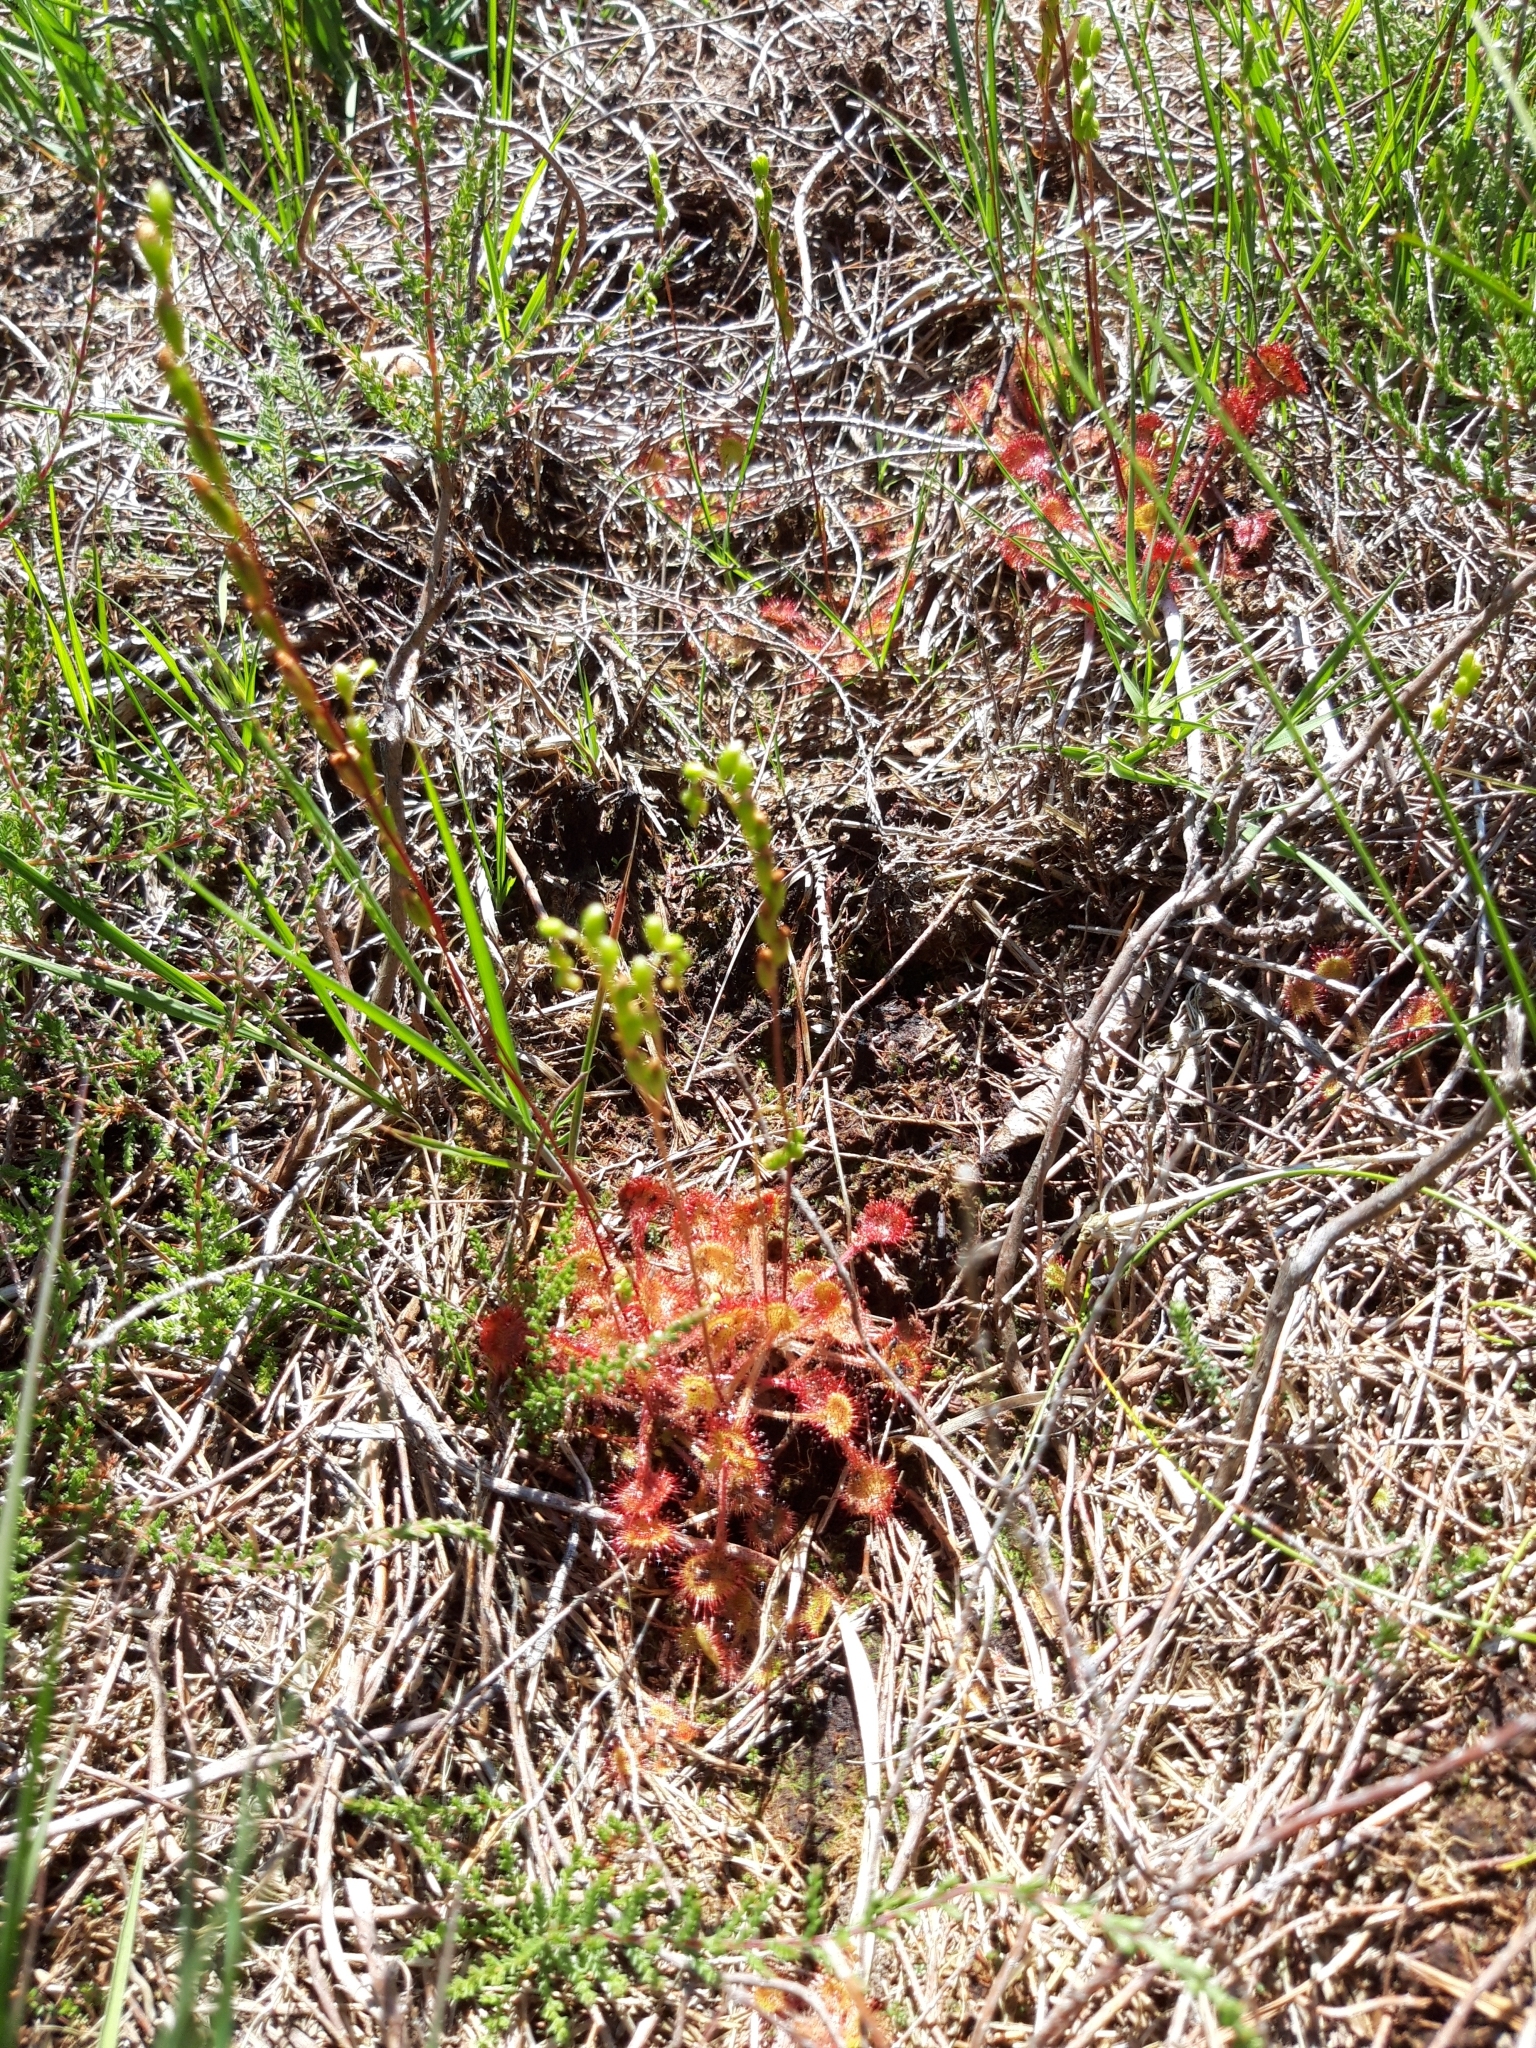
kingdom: Plantae
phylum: Tracheophyta
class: Magnoliopsida
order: Caryophyllales
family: Droseraceae
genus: Drosera
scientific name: Drosera rotundifolia
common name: Round-leaved sundew
